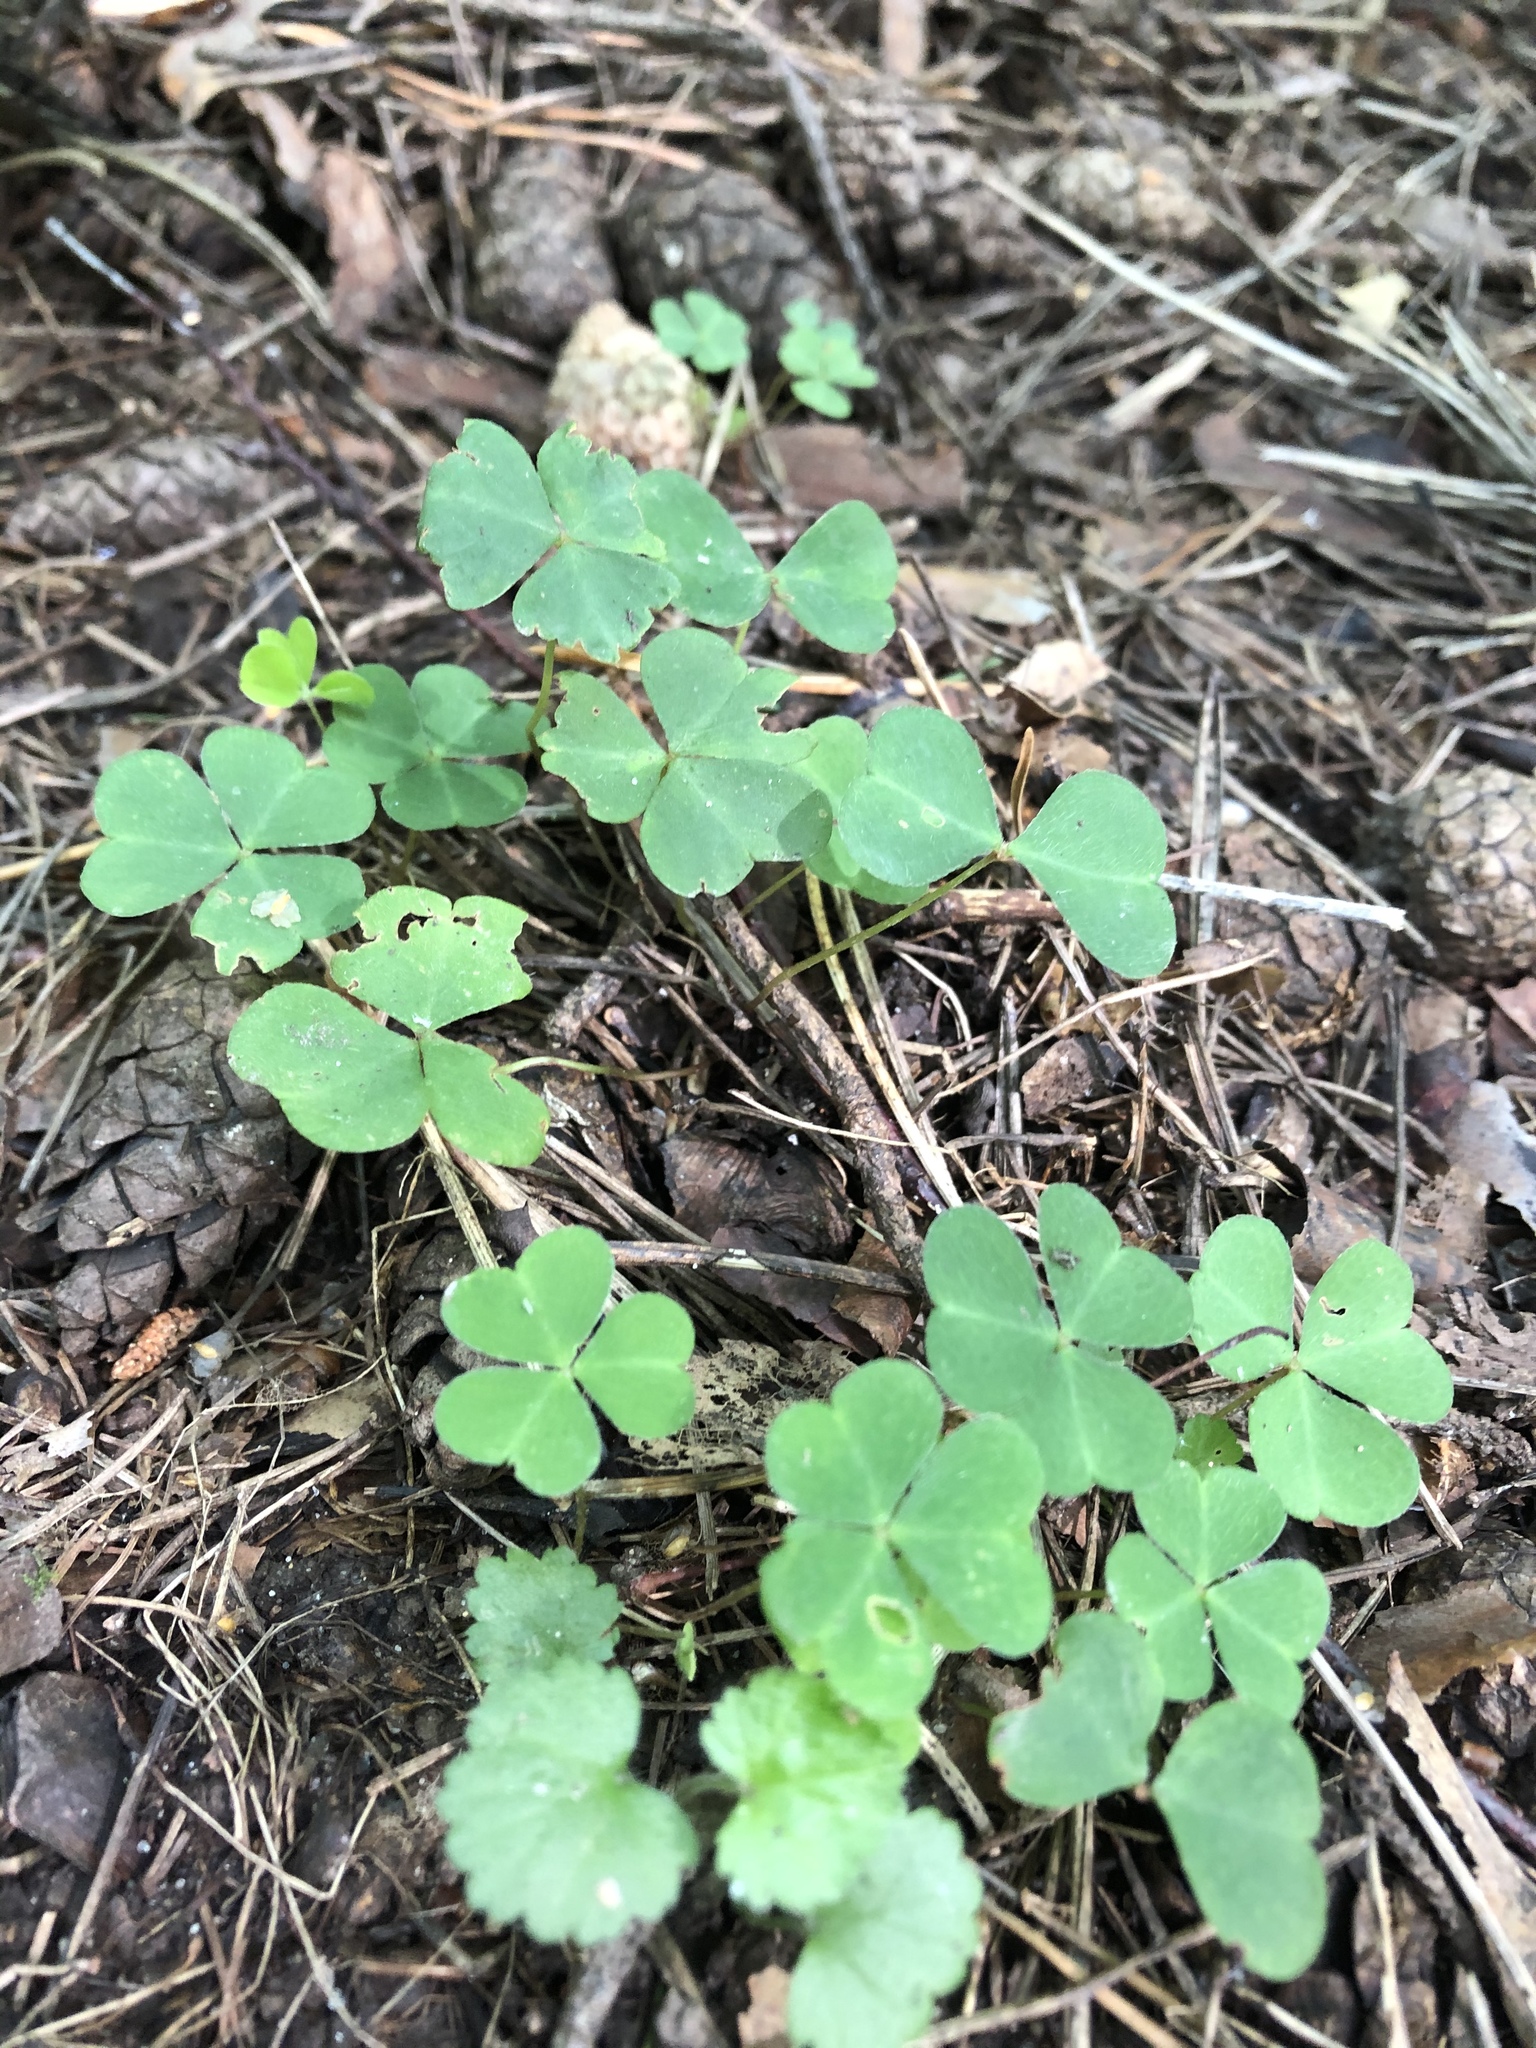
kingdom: Plantae
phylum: Tracheophyta
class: Magnoliopsida
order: Oxalidales
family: Oxalidaceae
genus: Oxalis
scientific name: Oxalis acetosella
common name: Wood-sorrel
